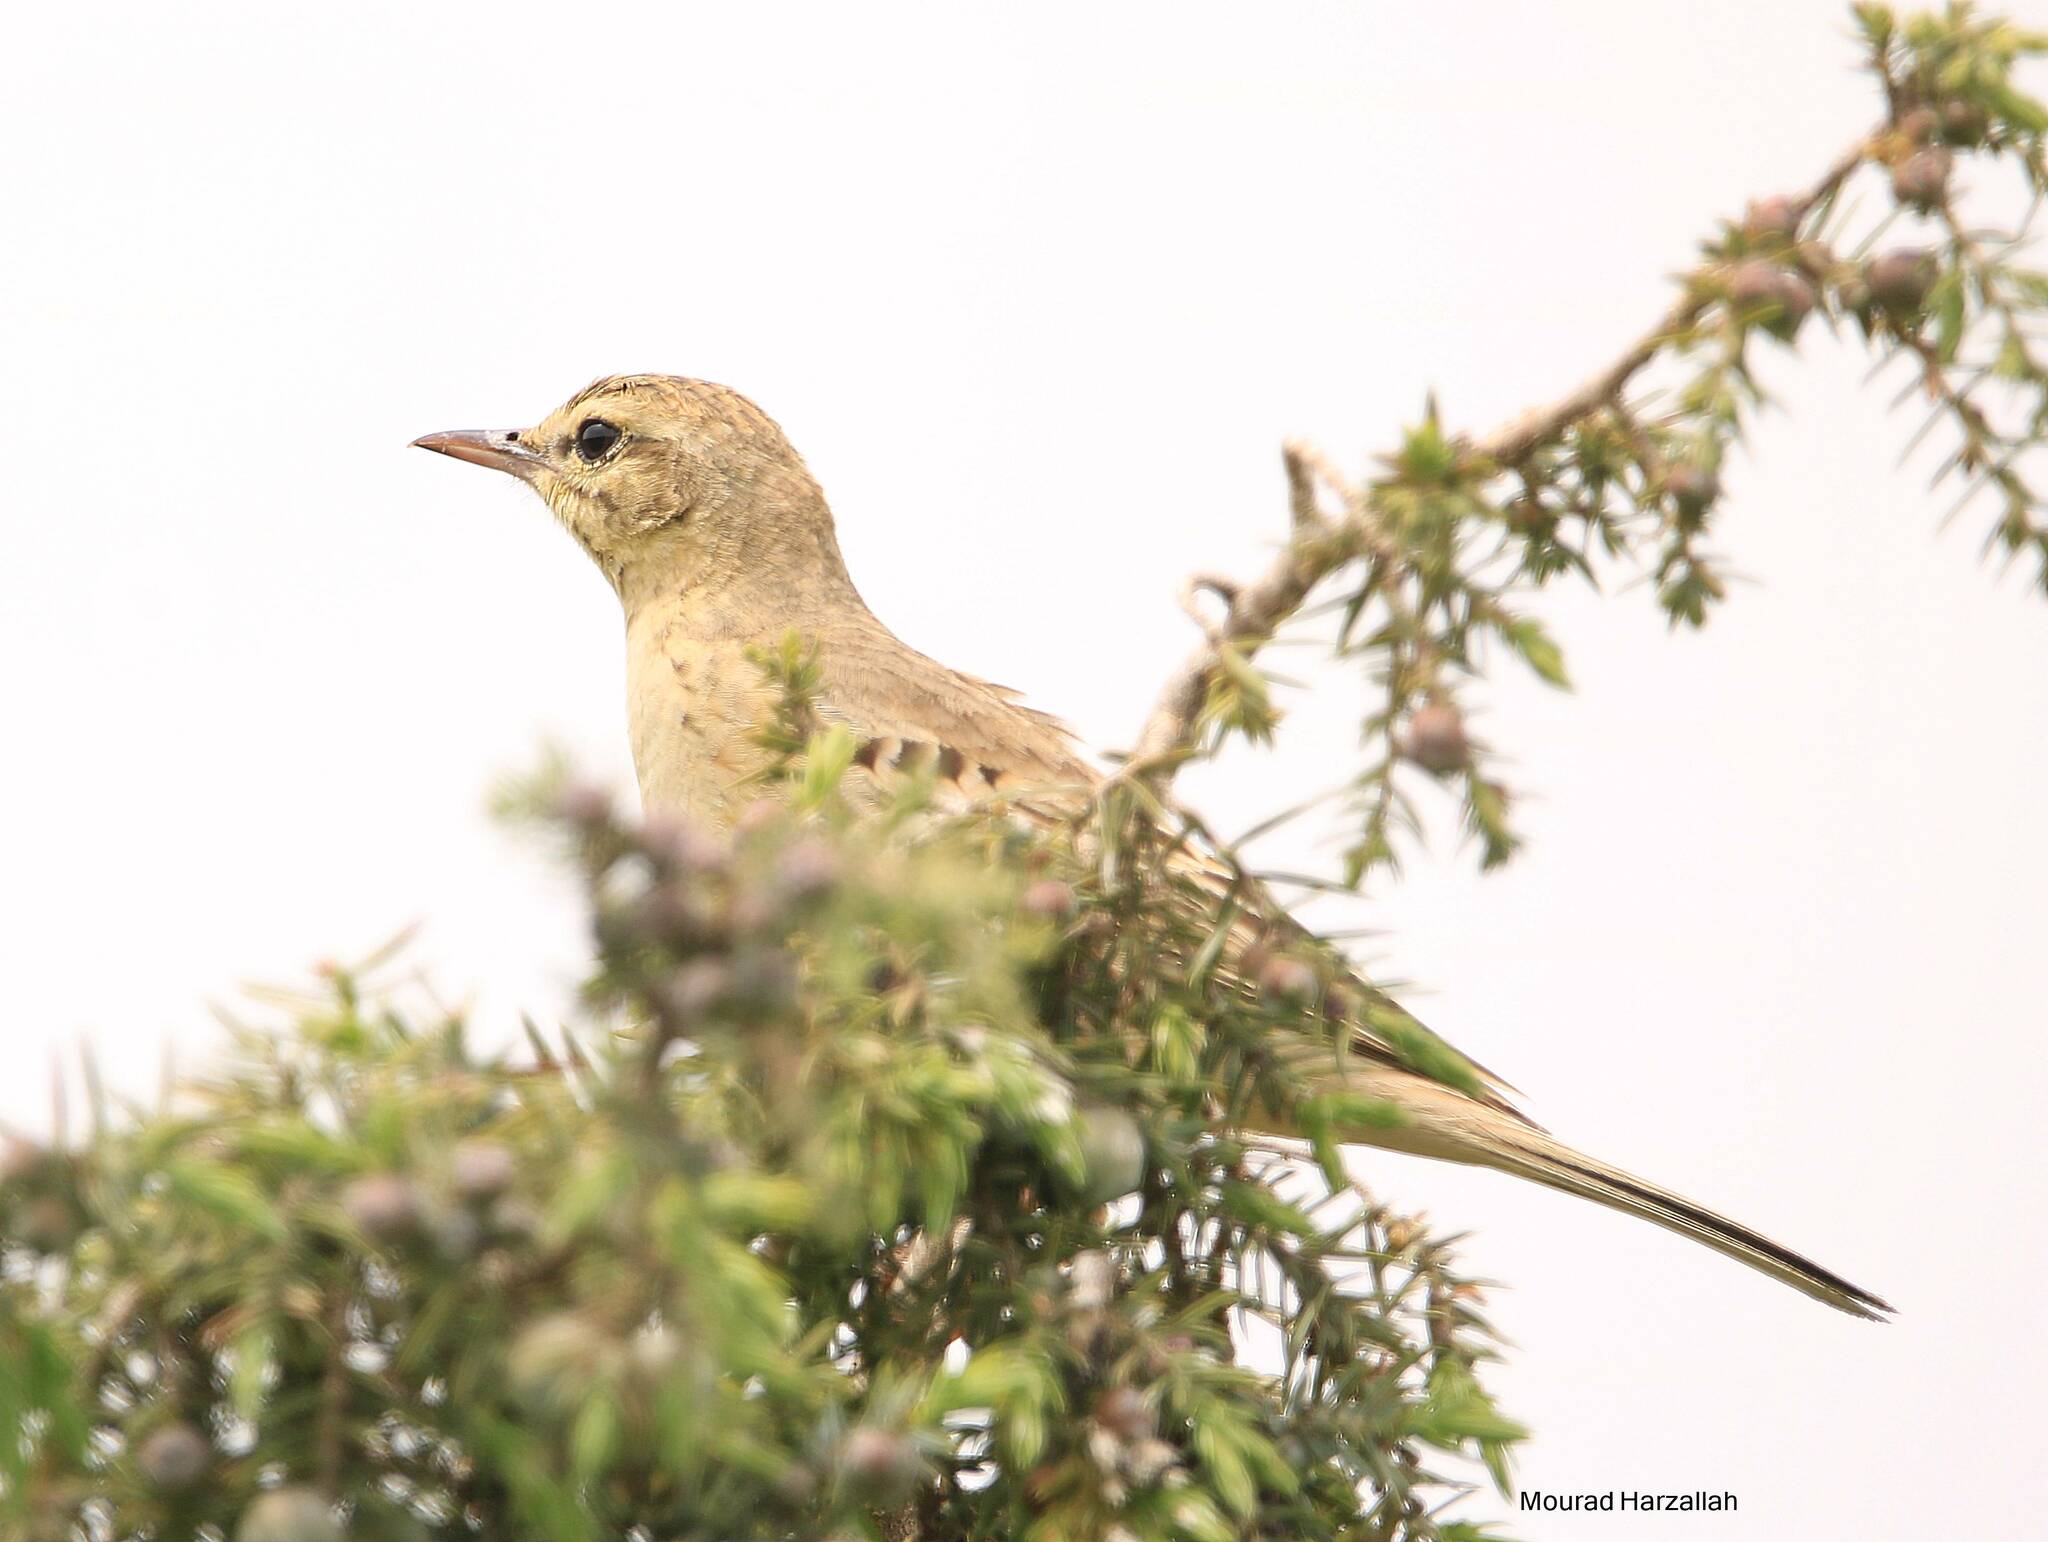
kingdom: Animalia
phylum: Chordata
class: Aves
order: Passeriformes
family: Motacillidae
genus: Anthus
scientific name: Anthus campestris
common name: Tawny pipit
